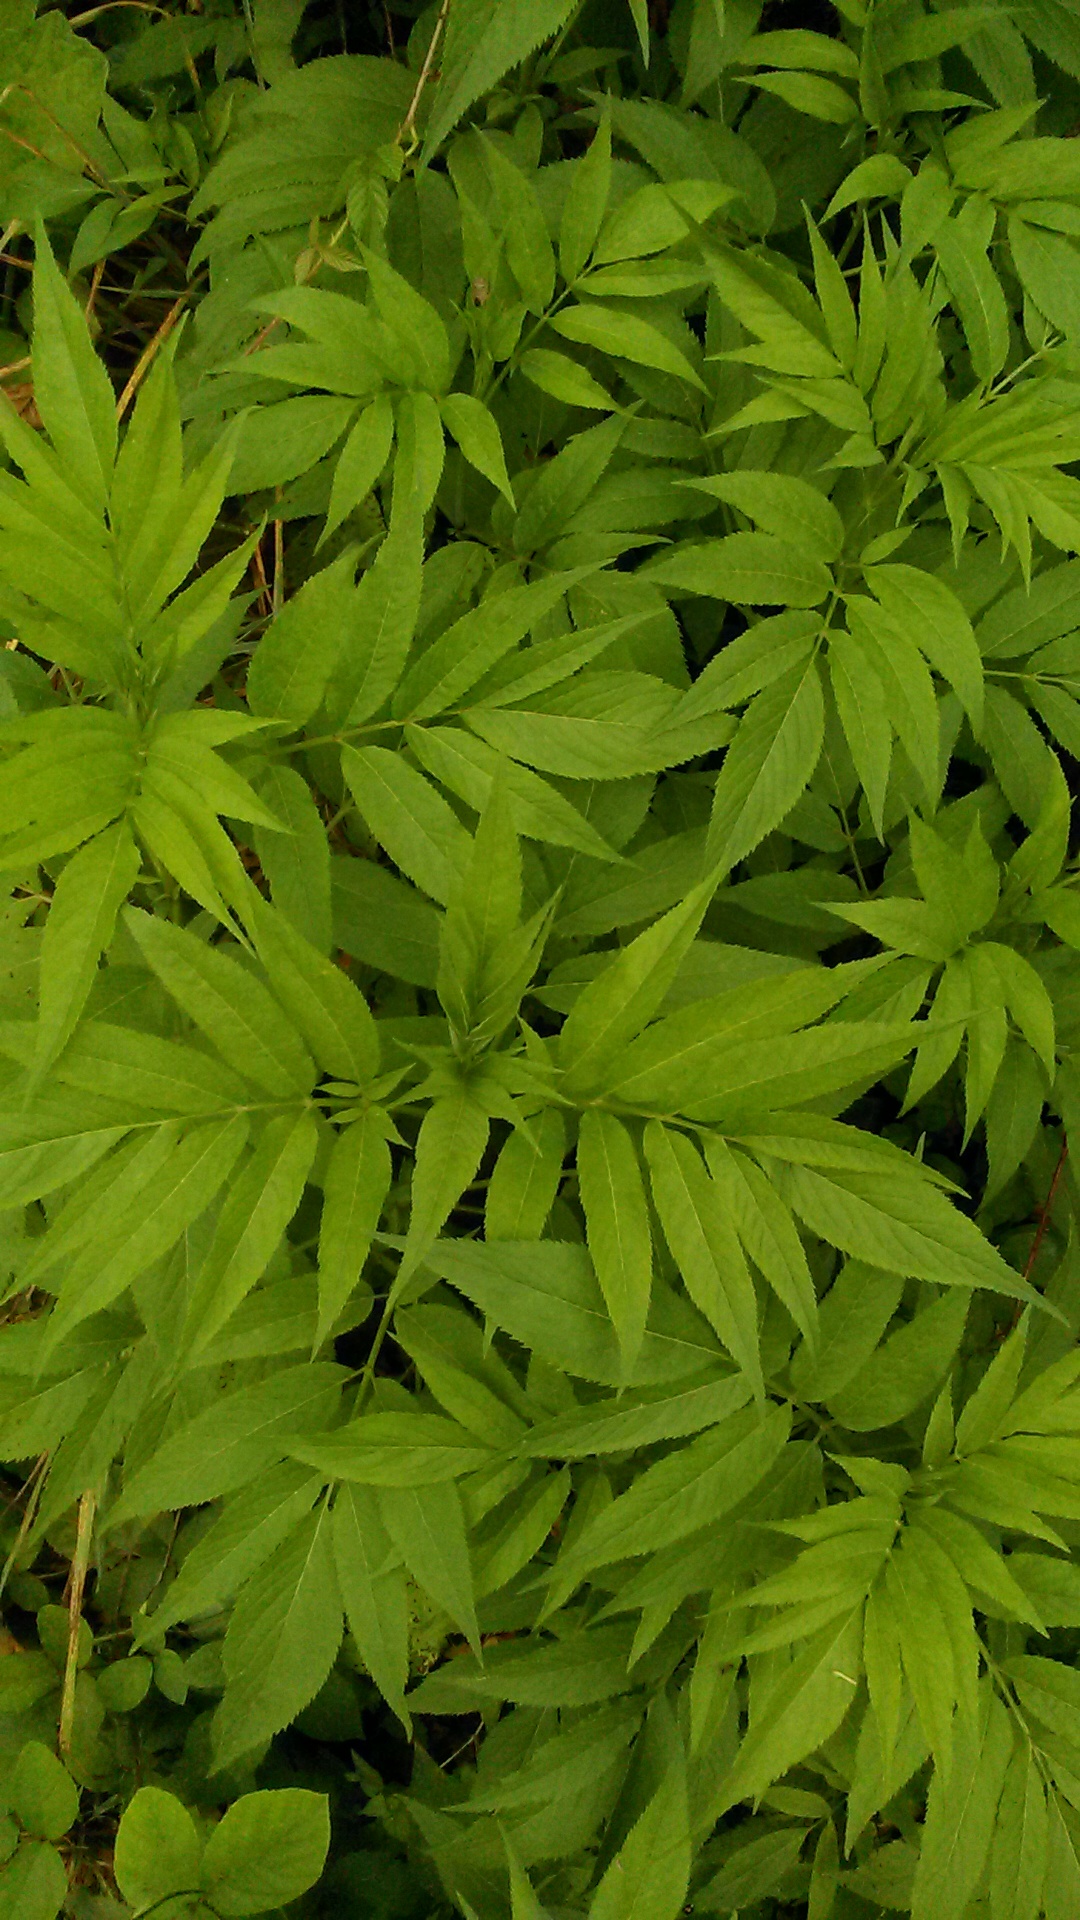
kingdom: Plantae
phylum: Tracheophyta
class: Magnoliopsida
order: Dipsacales
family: Viburnaceae
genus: Sambucus
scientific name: Sambucus ebulus
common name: Dwarf elder
